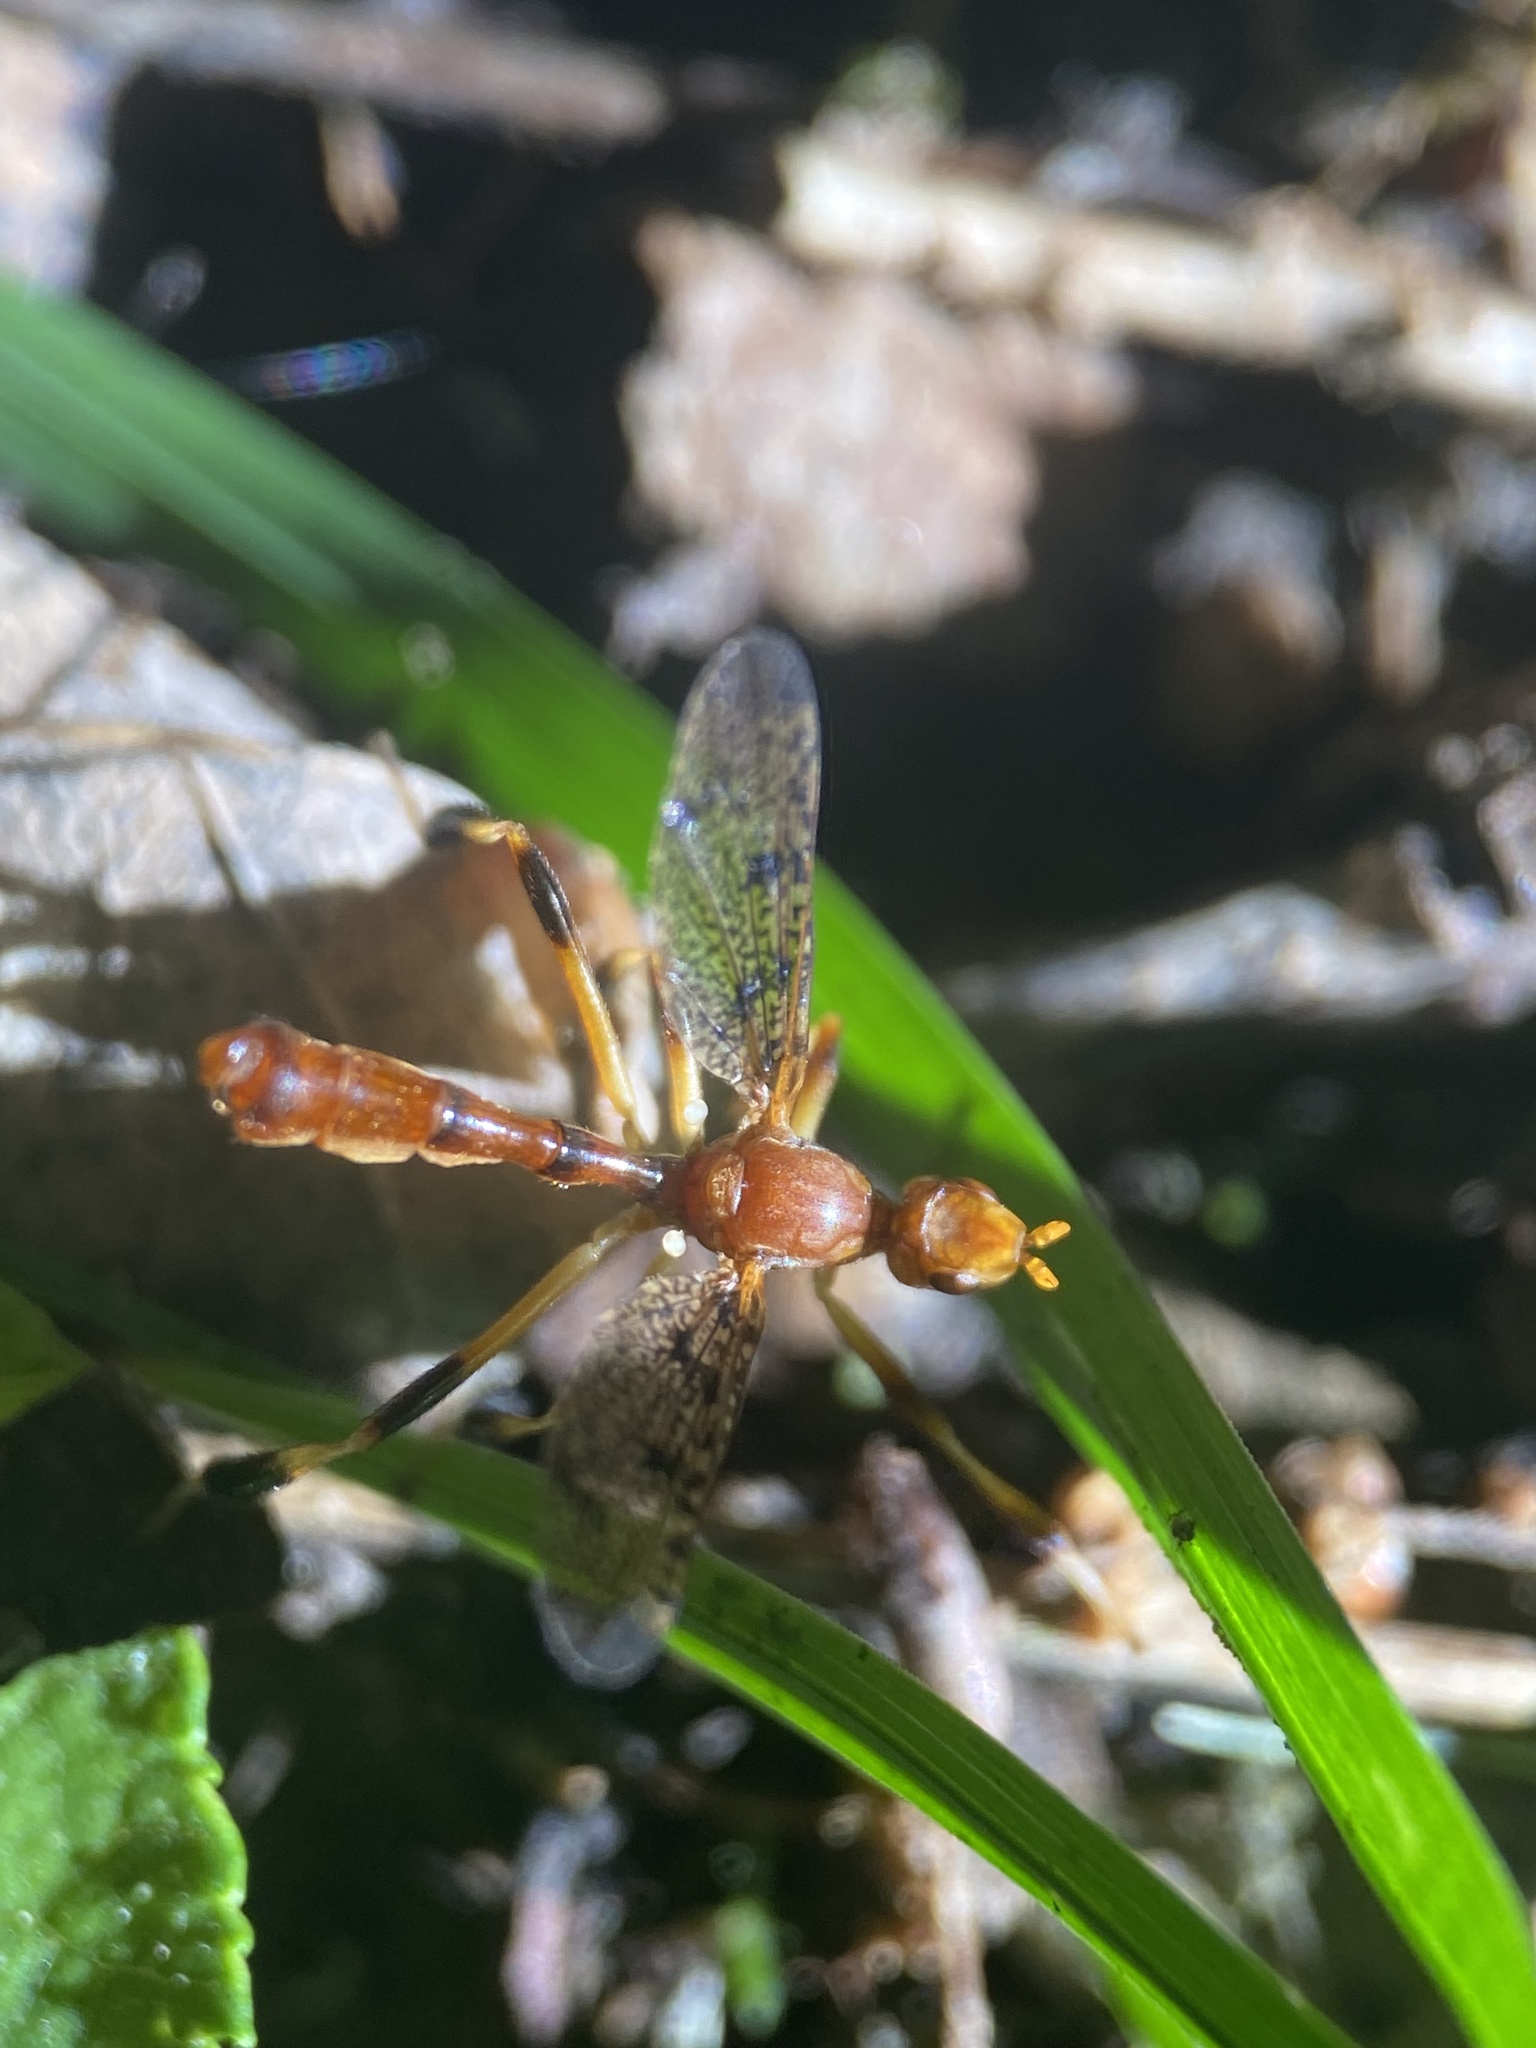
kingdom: Animalia
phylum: Arthropoda
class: Insecta
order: Diptera
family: Pyrgotidae
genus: Pyrgotella
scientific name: Pyrgotella chagnoni
